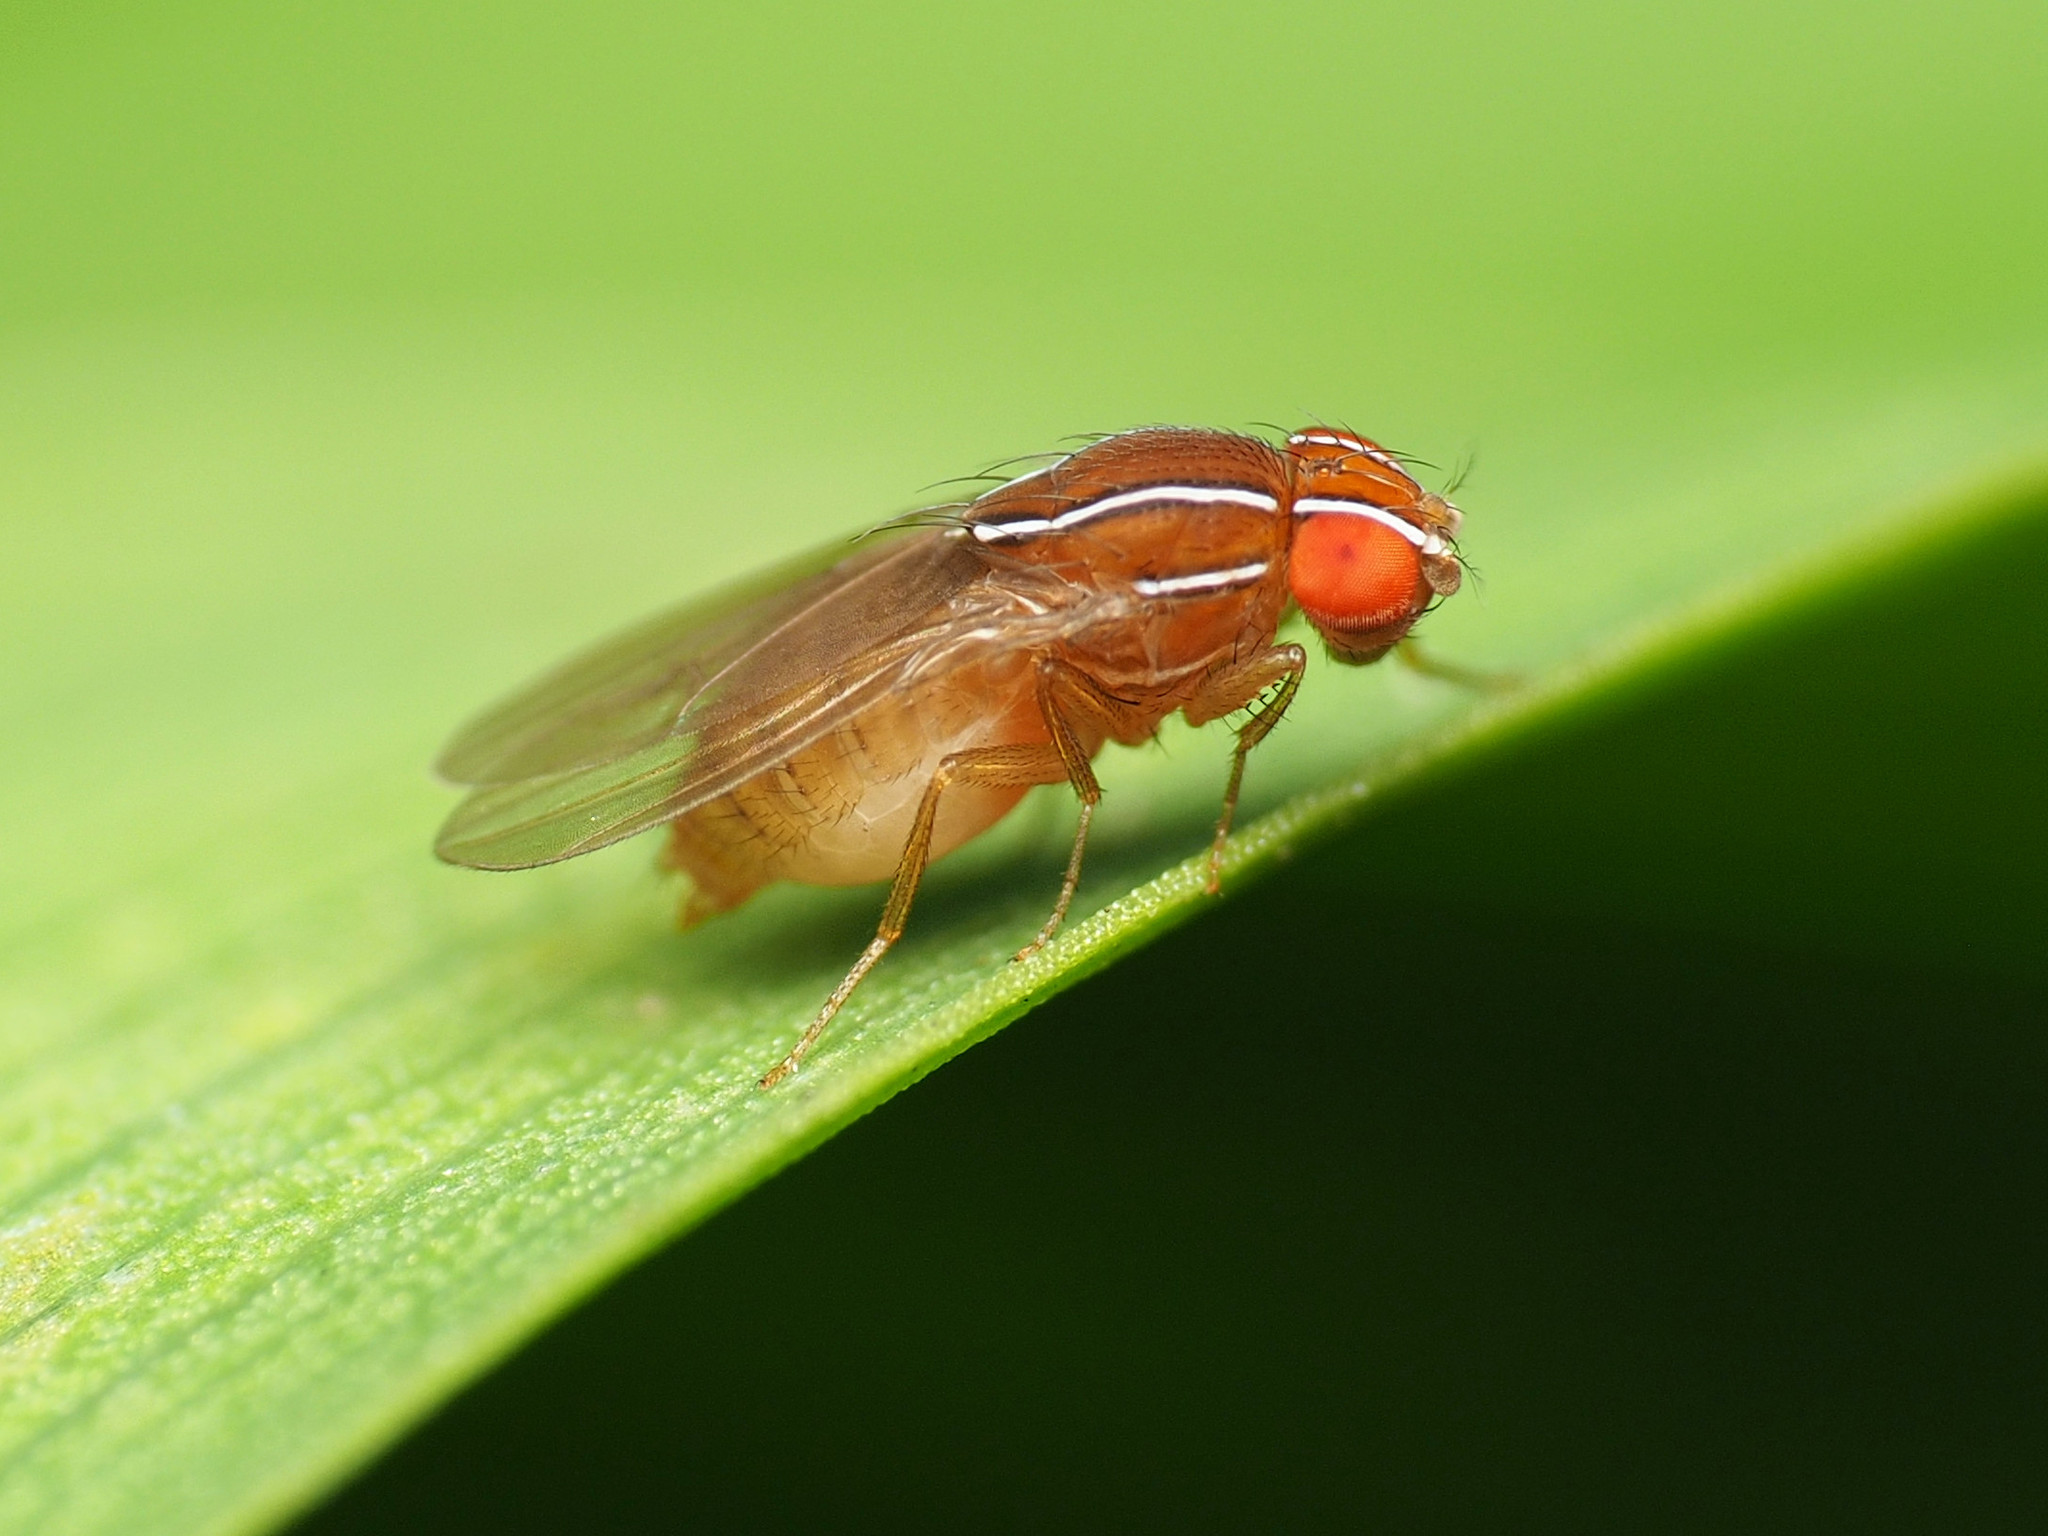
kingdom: Animalia
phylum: Arthropoda
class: Insecta
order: Diptera
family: Drosophilidae
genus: Zaprionus
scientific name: Zaprionus indianus
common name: African fig fly
